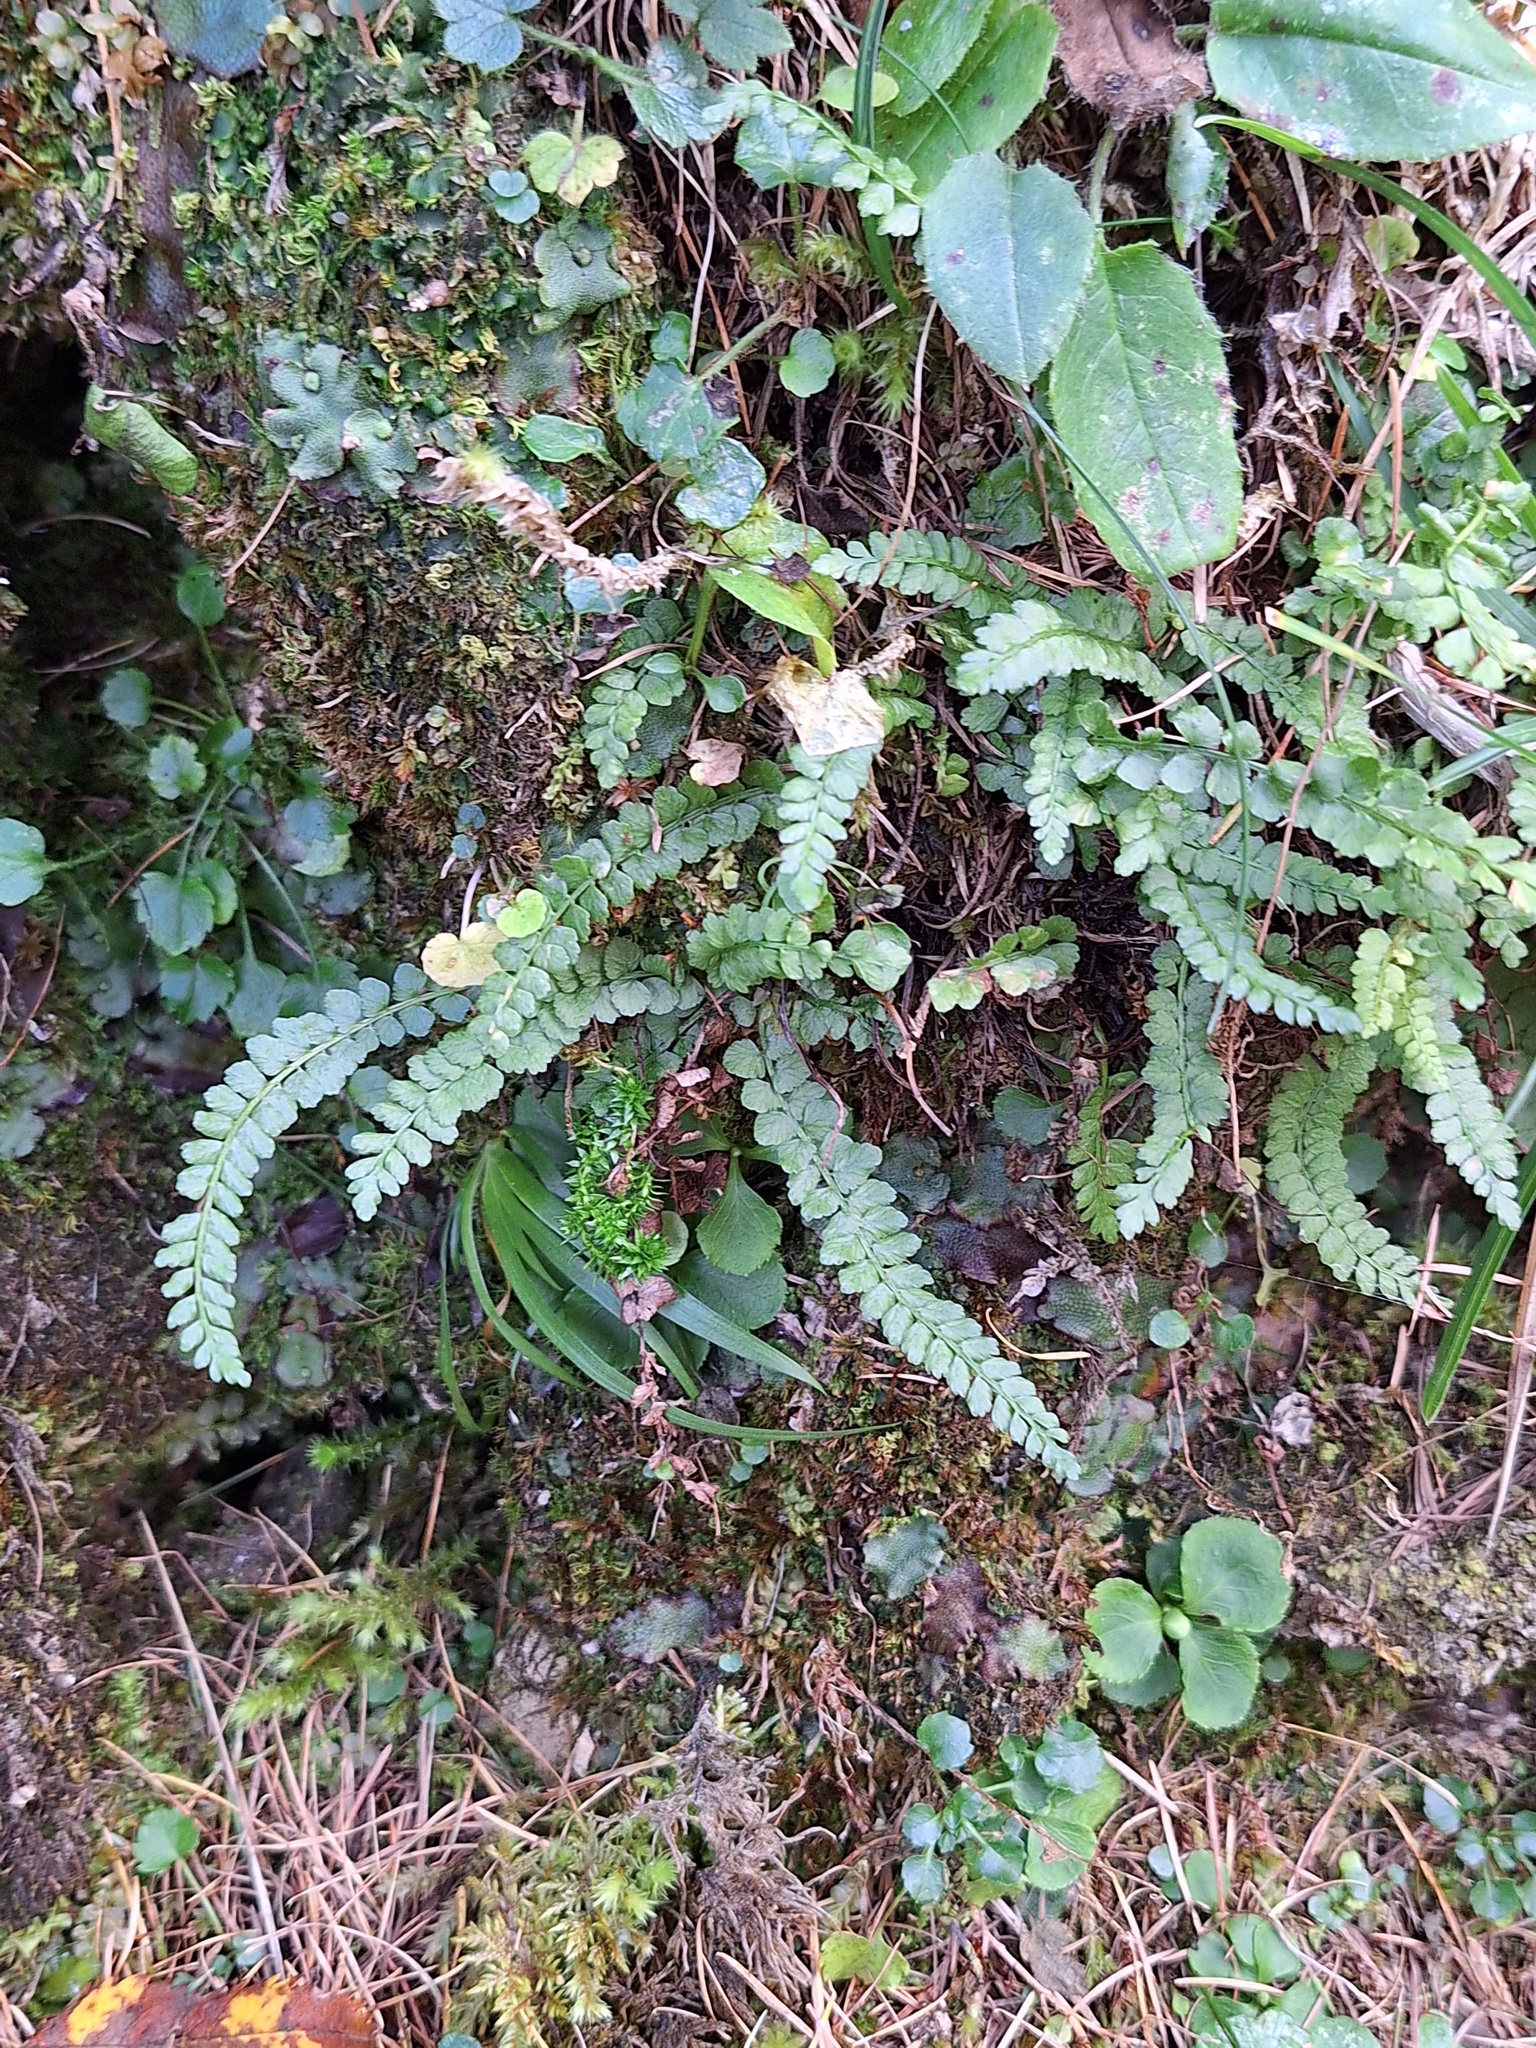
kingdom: Plantae
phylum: Tracheophyta
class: Polypodiopsida
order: Polypodiales
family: Aspleniaceae
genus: Asplenium
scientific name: Asplenium viride
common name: Green spleenwort
